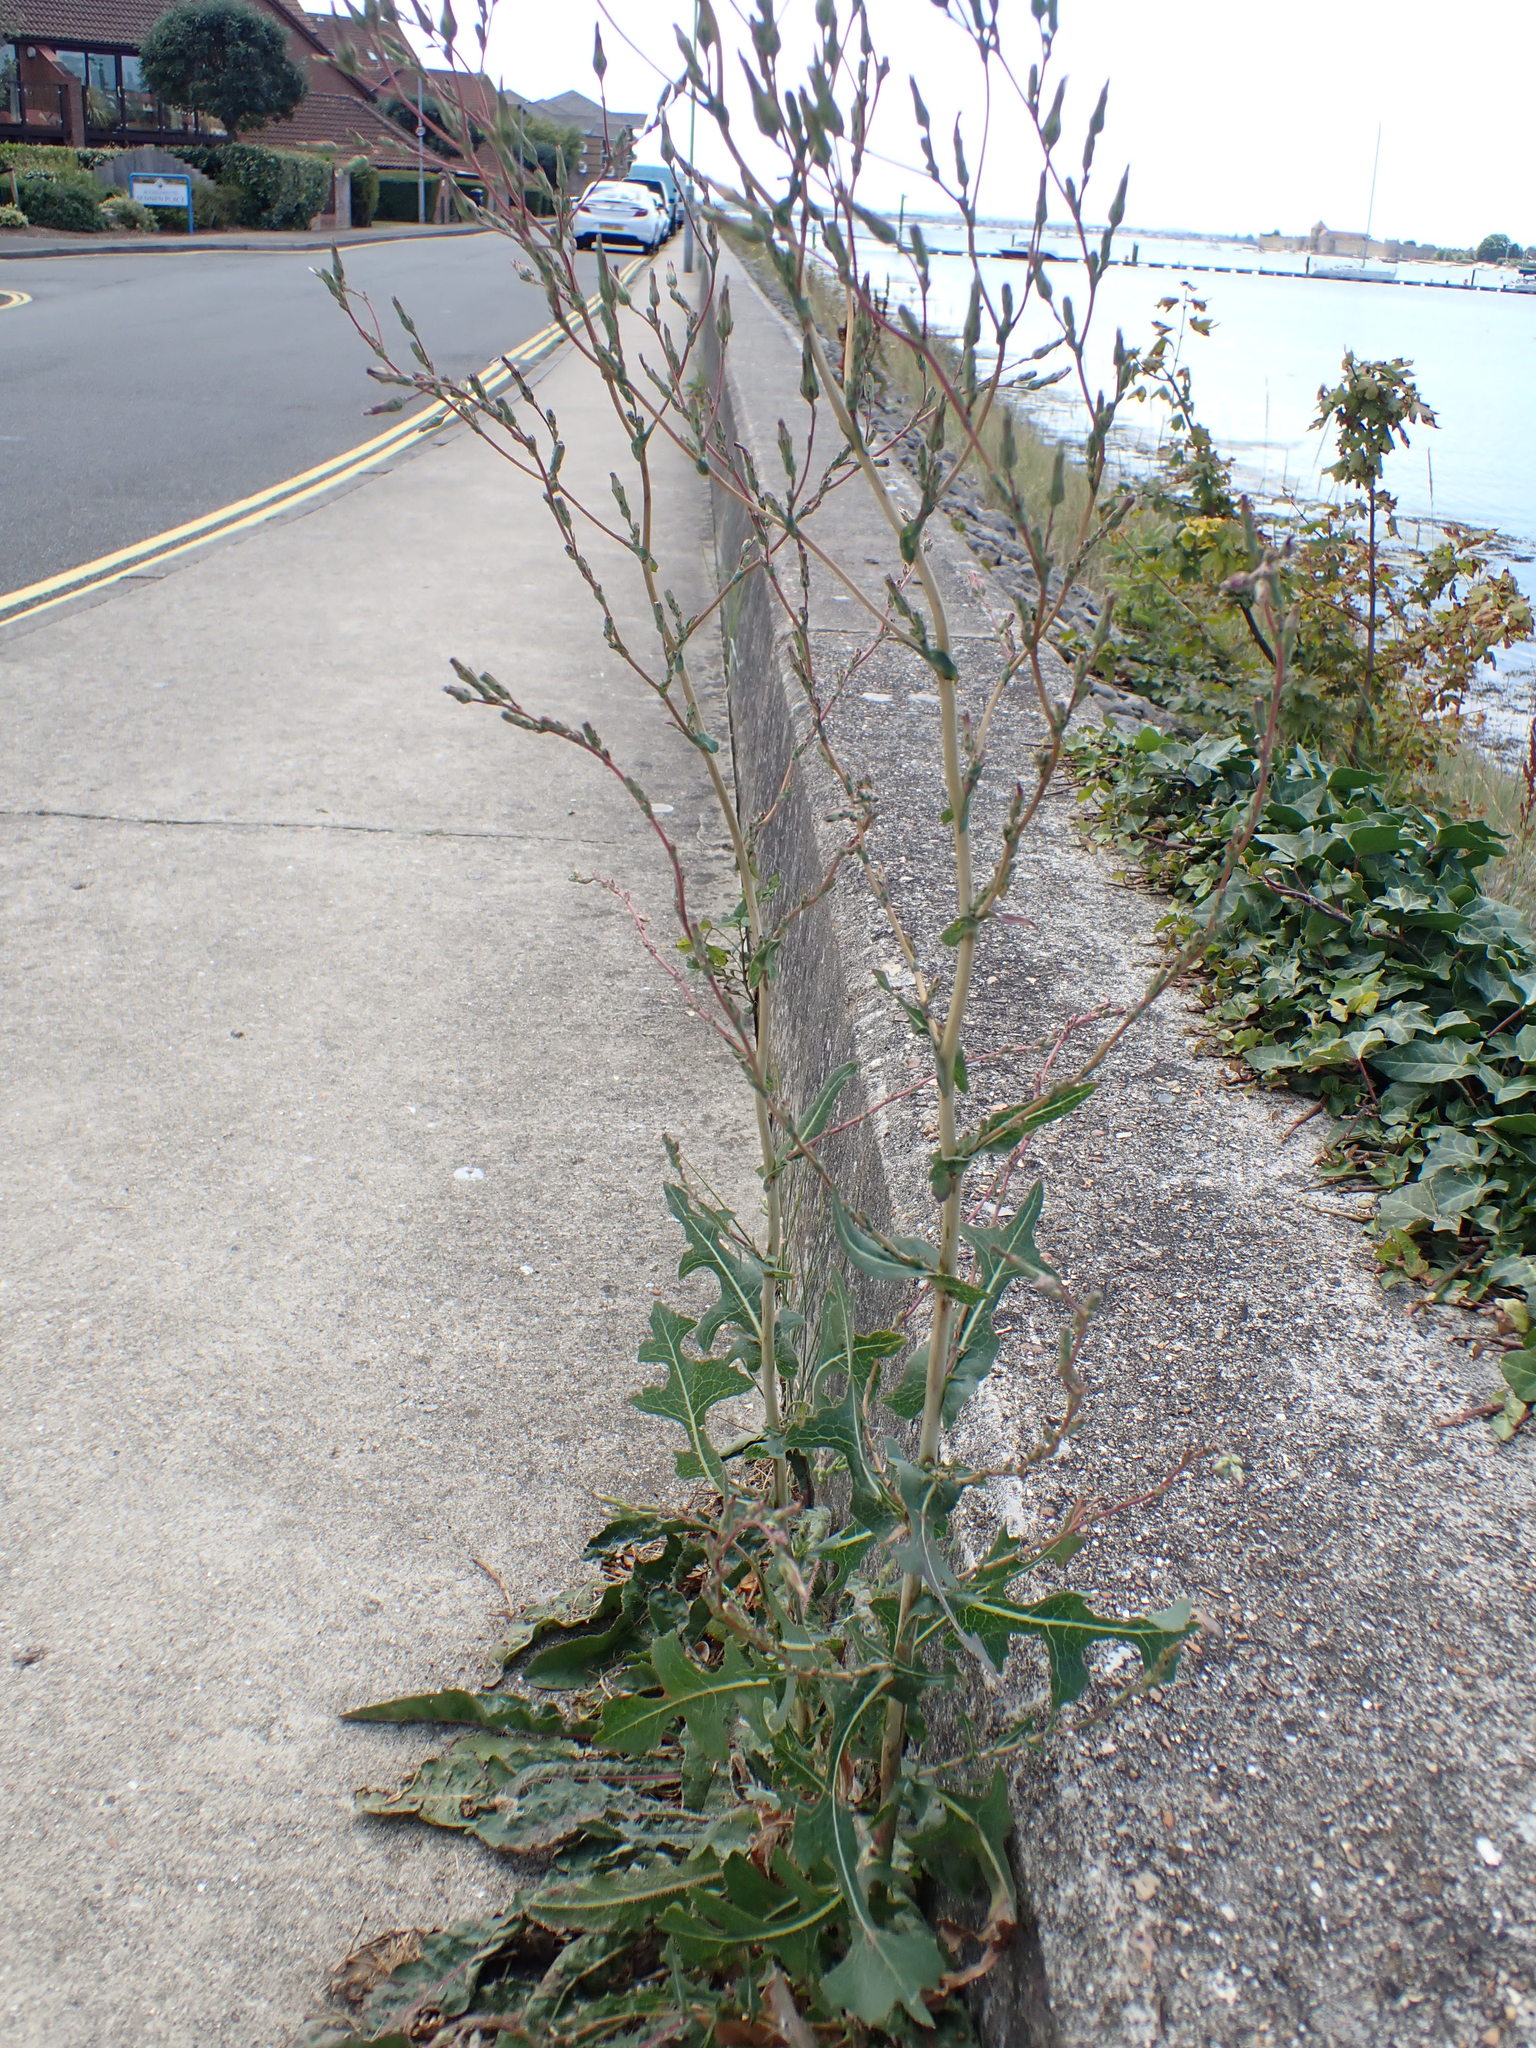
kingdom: Plantae
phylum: Tracheophyta
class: Magnoliopsida
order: Asterales
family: Asteraceae
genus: Lactuca
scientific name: Lactuca serriola
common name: Prickly lettuce
